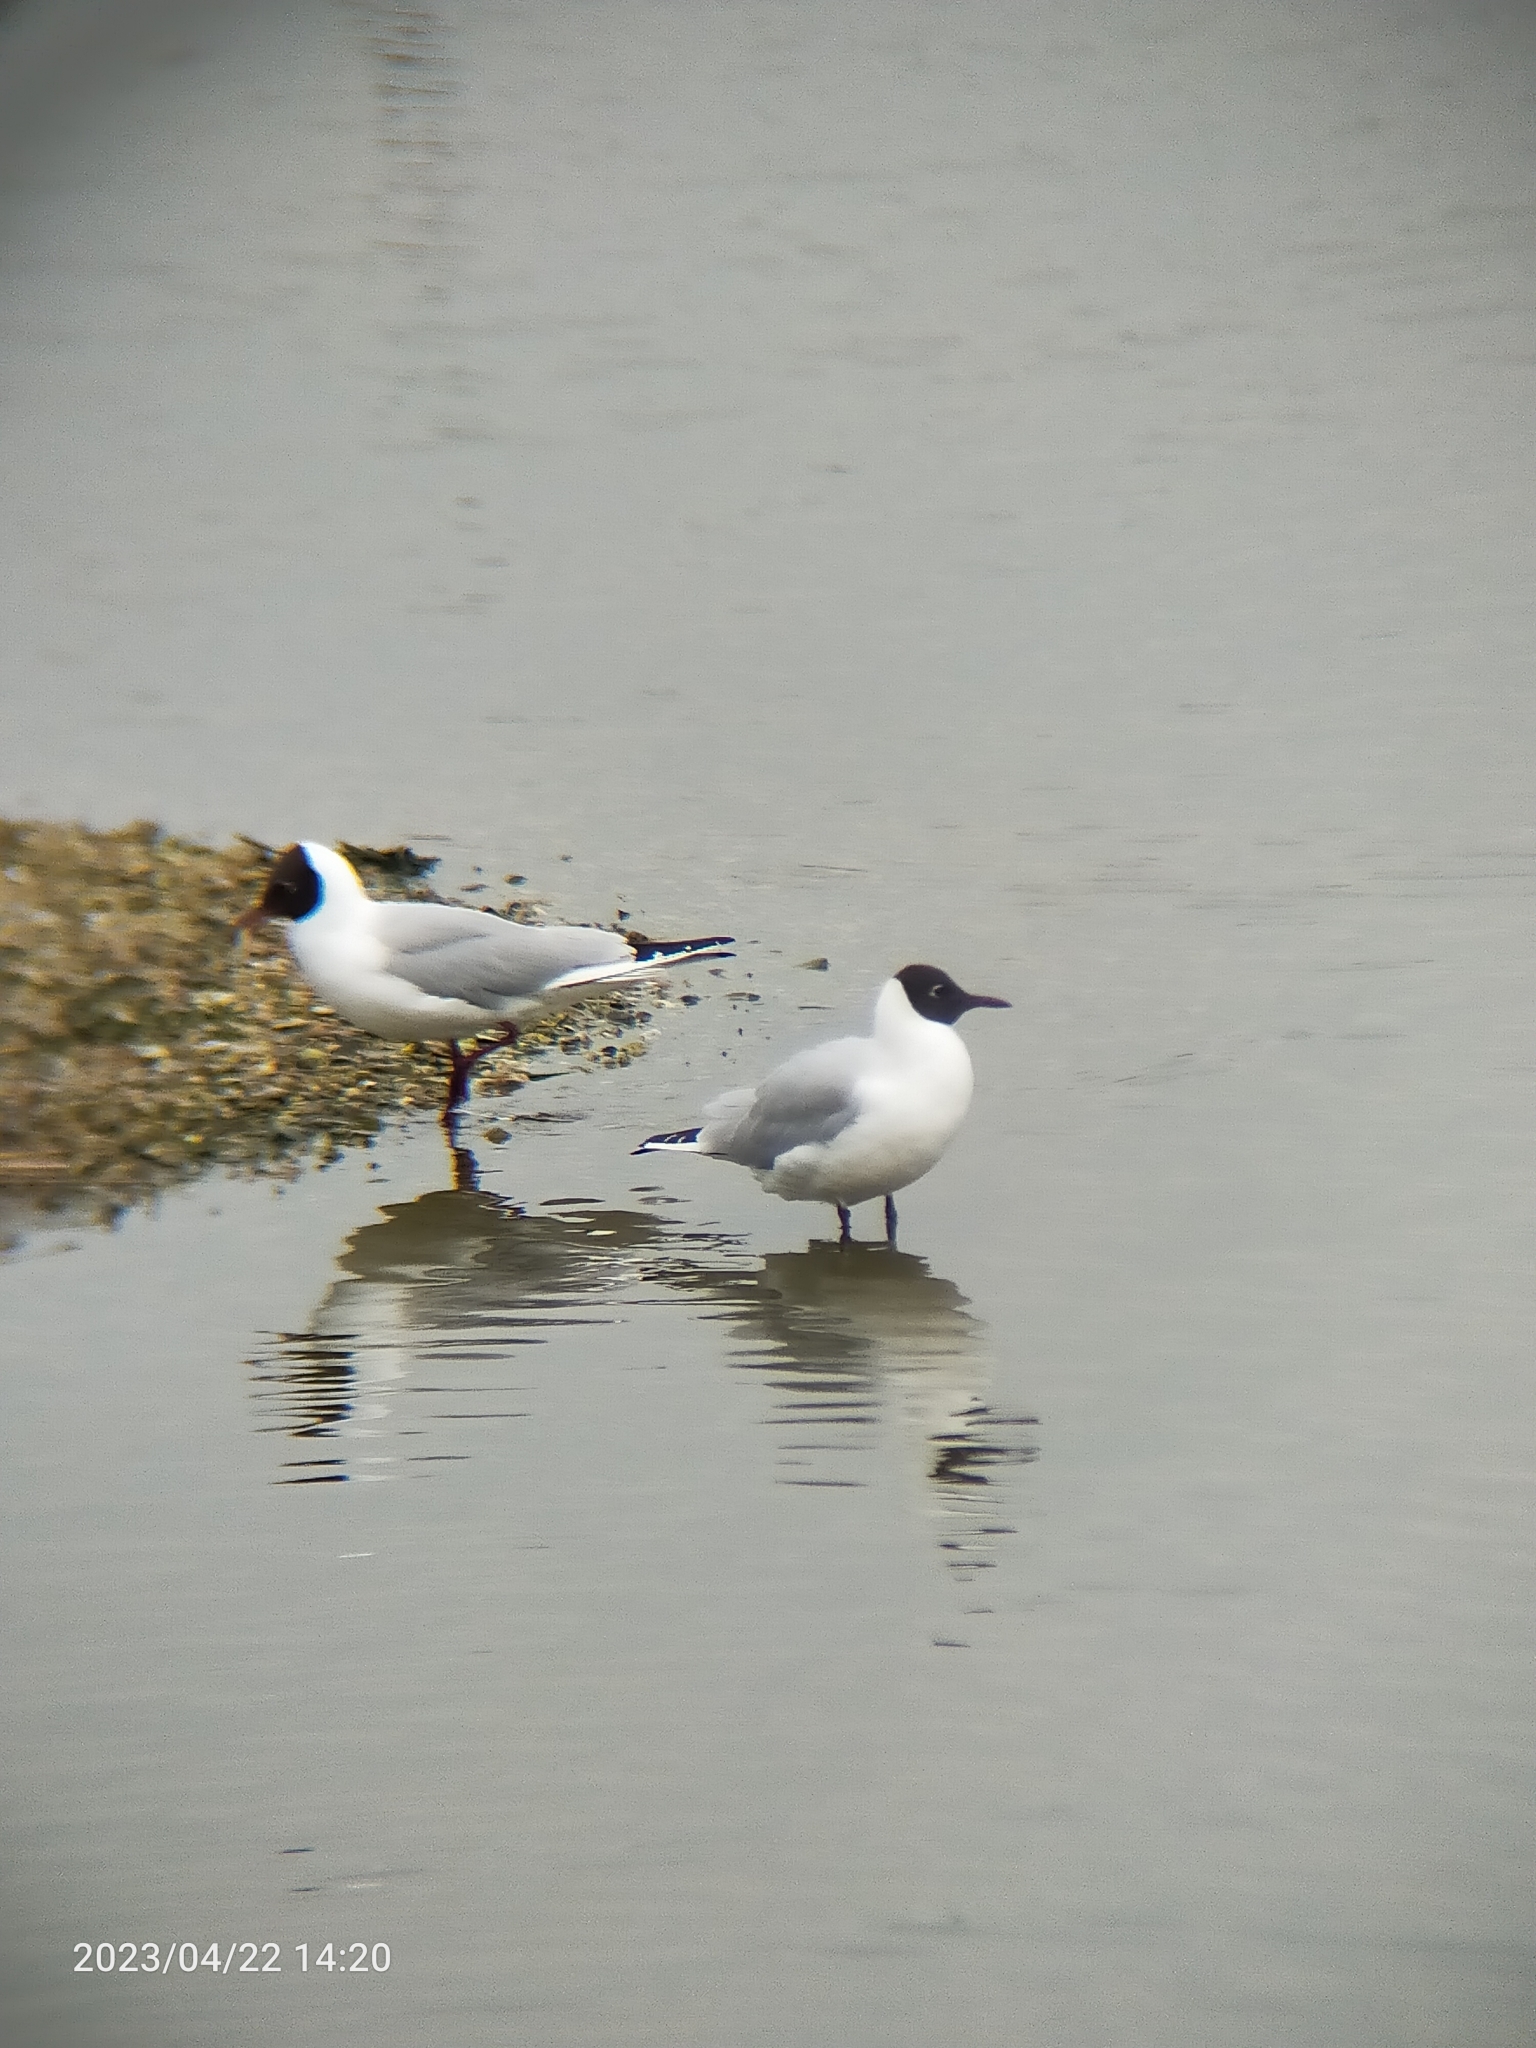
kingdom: Animalia
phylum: Chordata
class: Aves
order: Charadriiformes
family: Laridae
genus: Chroicocephalus
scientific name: Chroicocephalus ridibundus
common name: Black-headed gull
